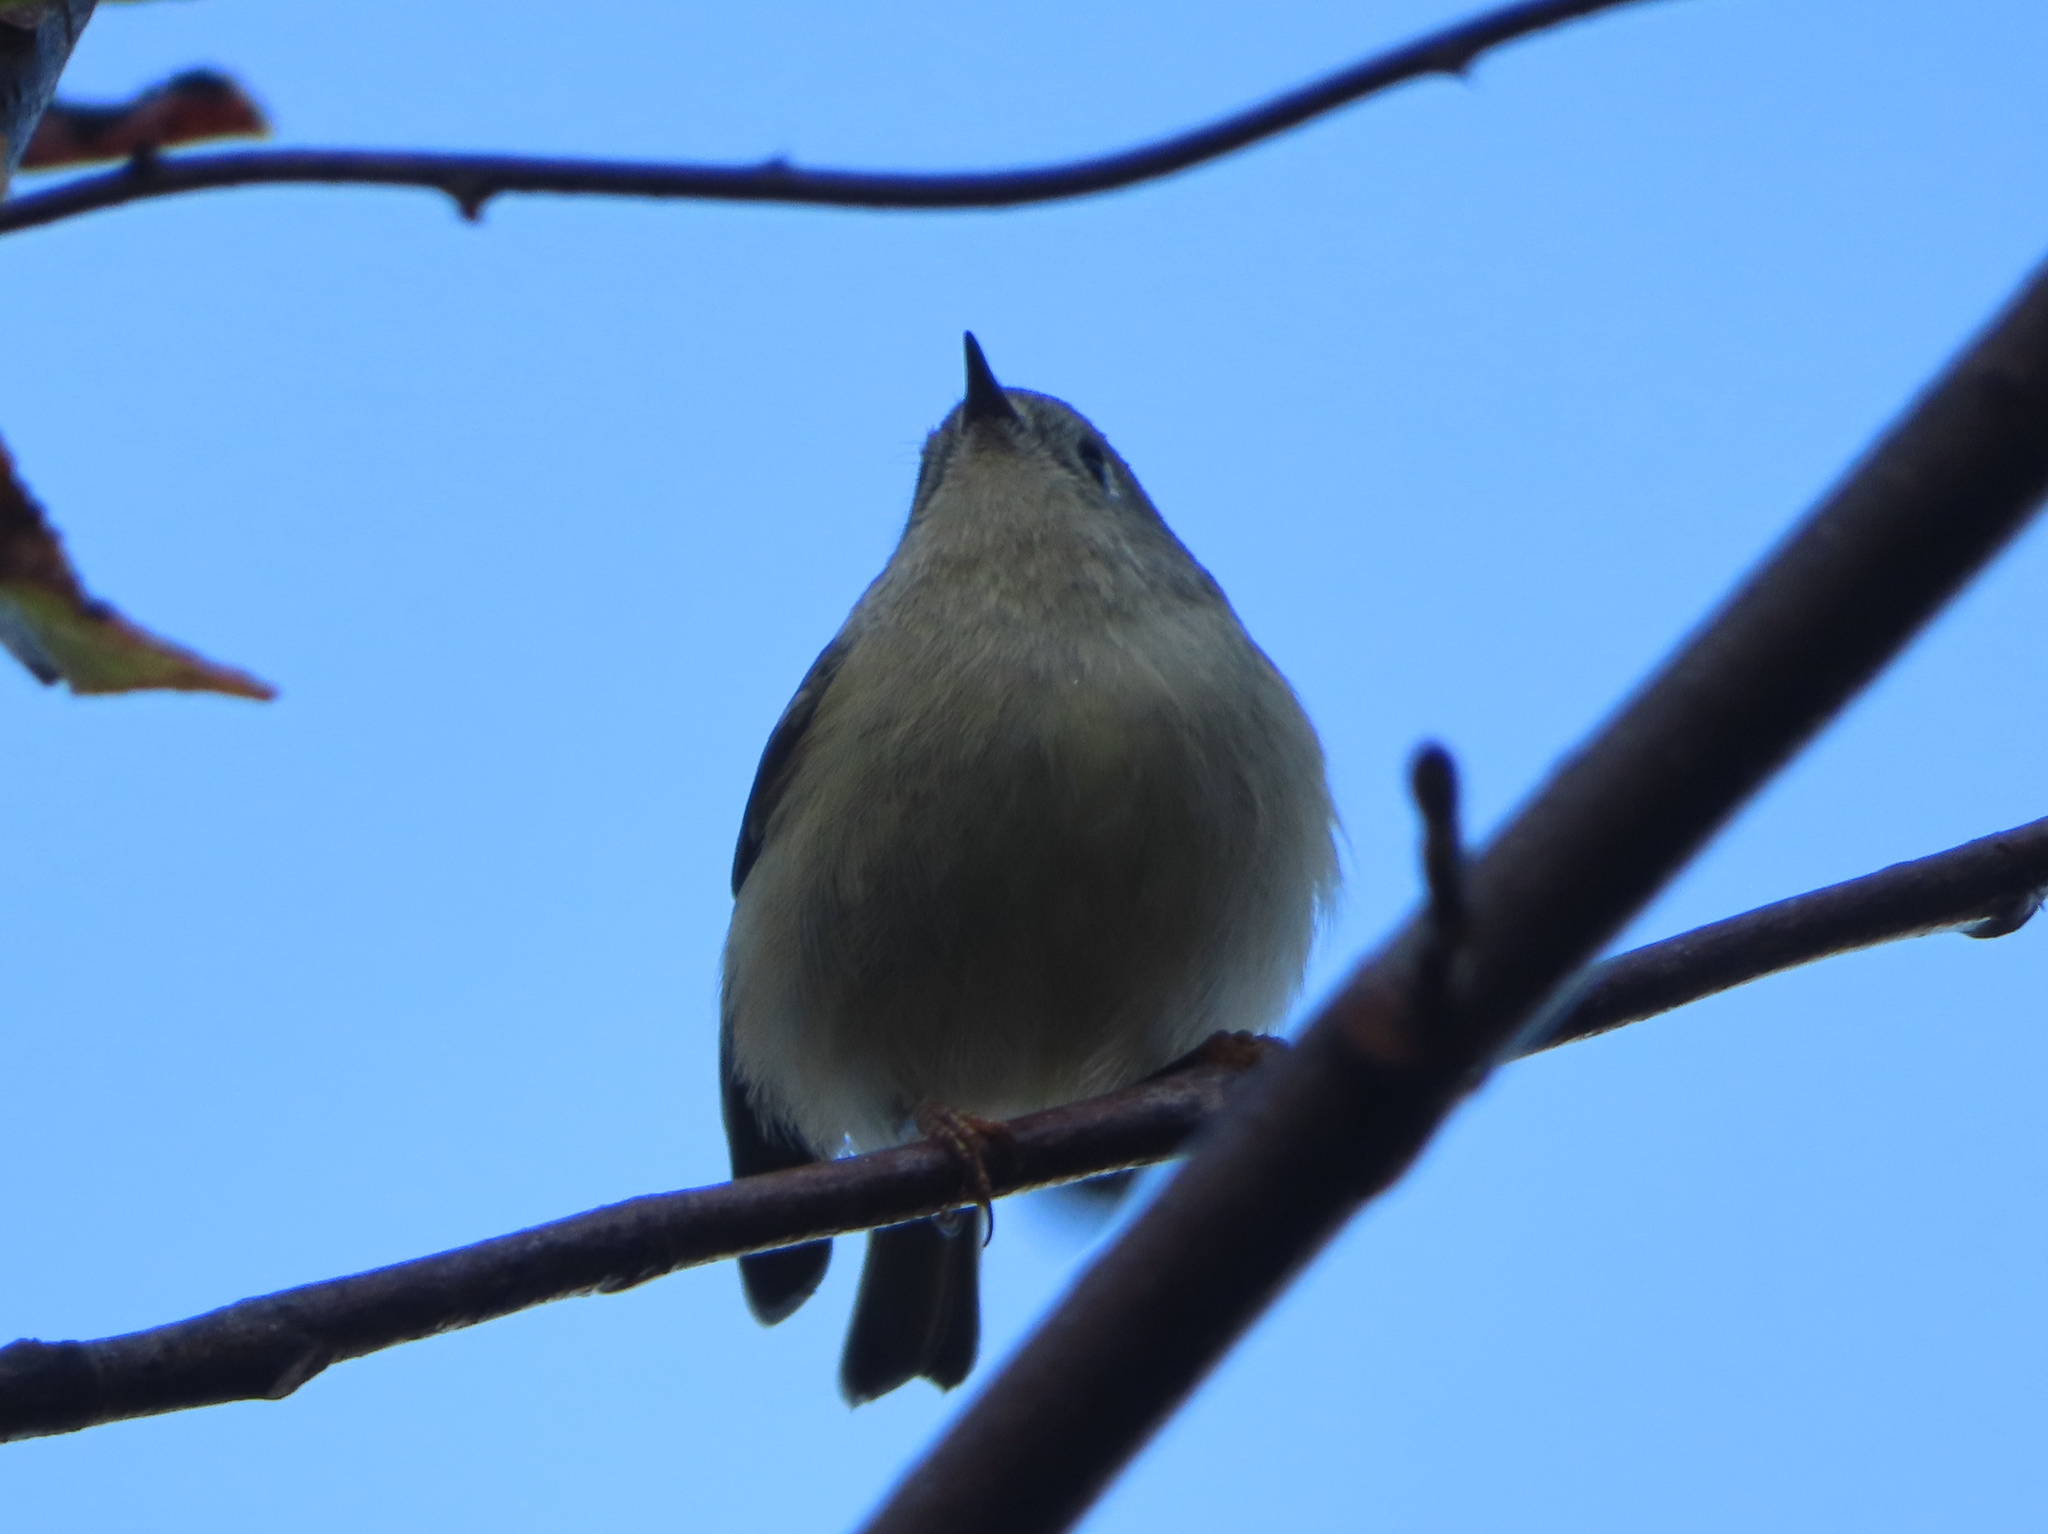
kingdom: Animalia
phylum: Chordata
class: Aves
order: Passeriformes
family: Regulidae
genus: Regulus
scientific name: Regulus calendula
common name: Ruby-crowned kinglet
